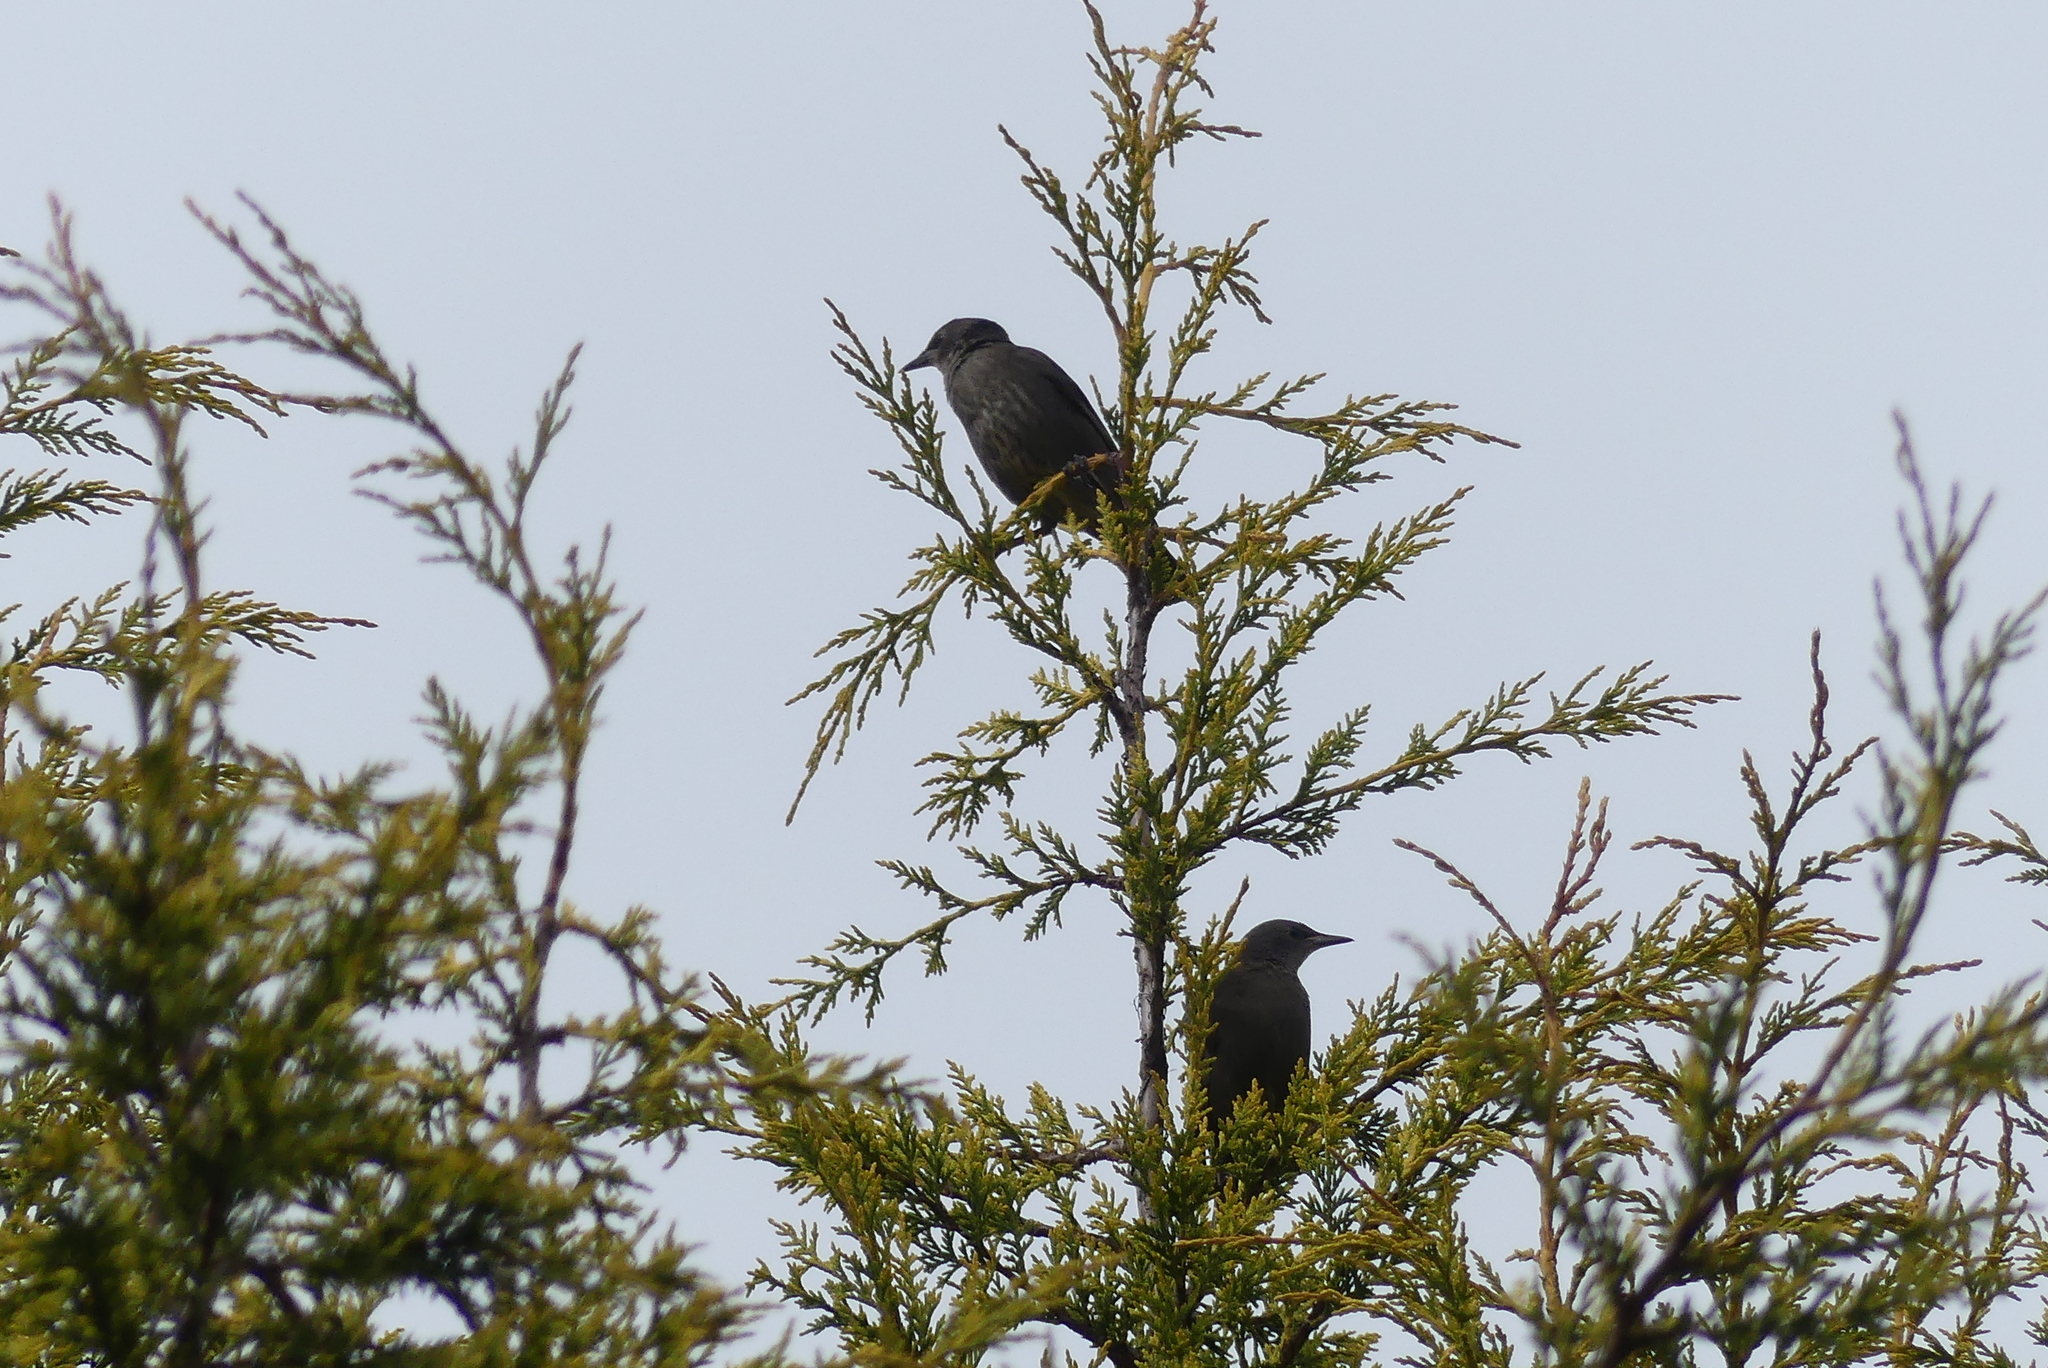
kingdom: Animalia
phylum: Chordata
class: Aves
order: Passeriformes
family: Sturnidae
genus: Sturnus
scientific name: Sturnus vulgaris
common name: Common starling
